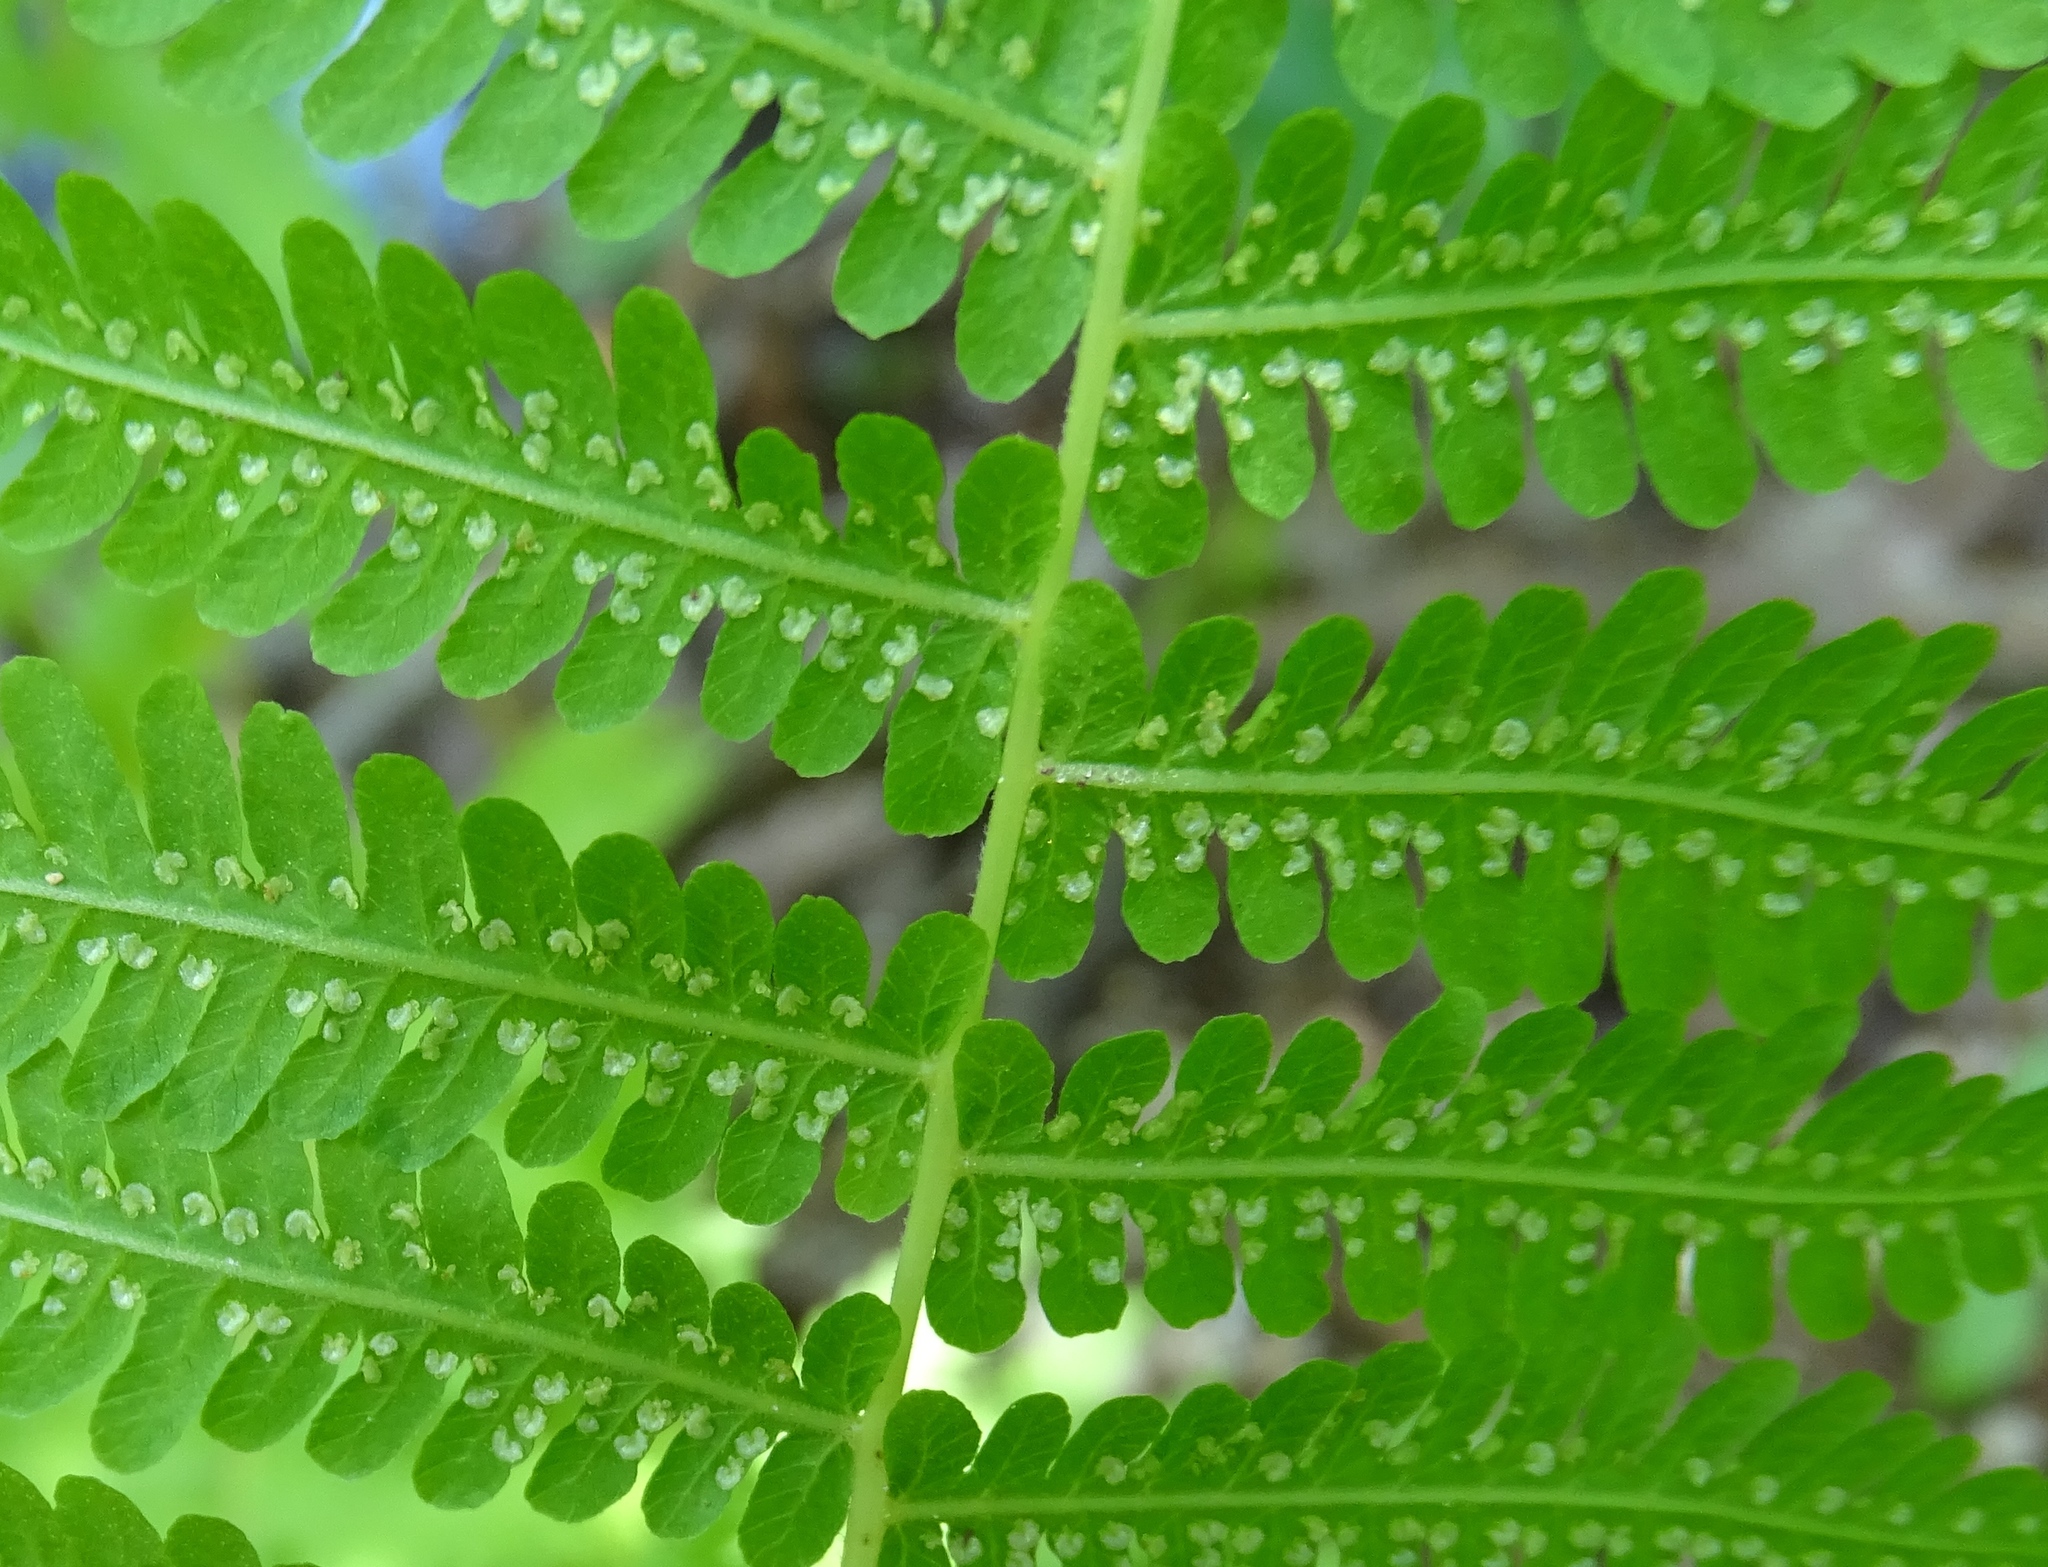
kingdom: Plantae
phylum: Tracheophyta
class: Polypodiopsida
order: Polypodiales
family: Thelypteridaceae
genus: Coryphopteris
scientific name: Coryphopteris simulata
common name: Bog fern
